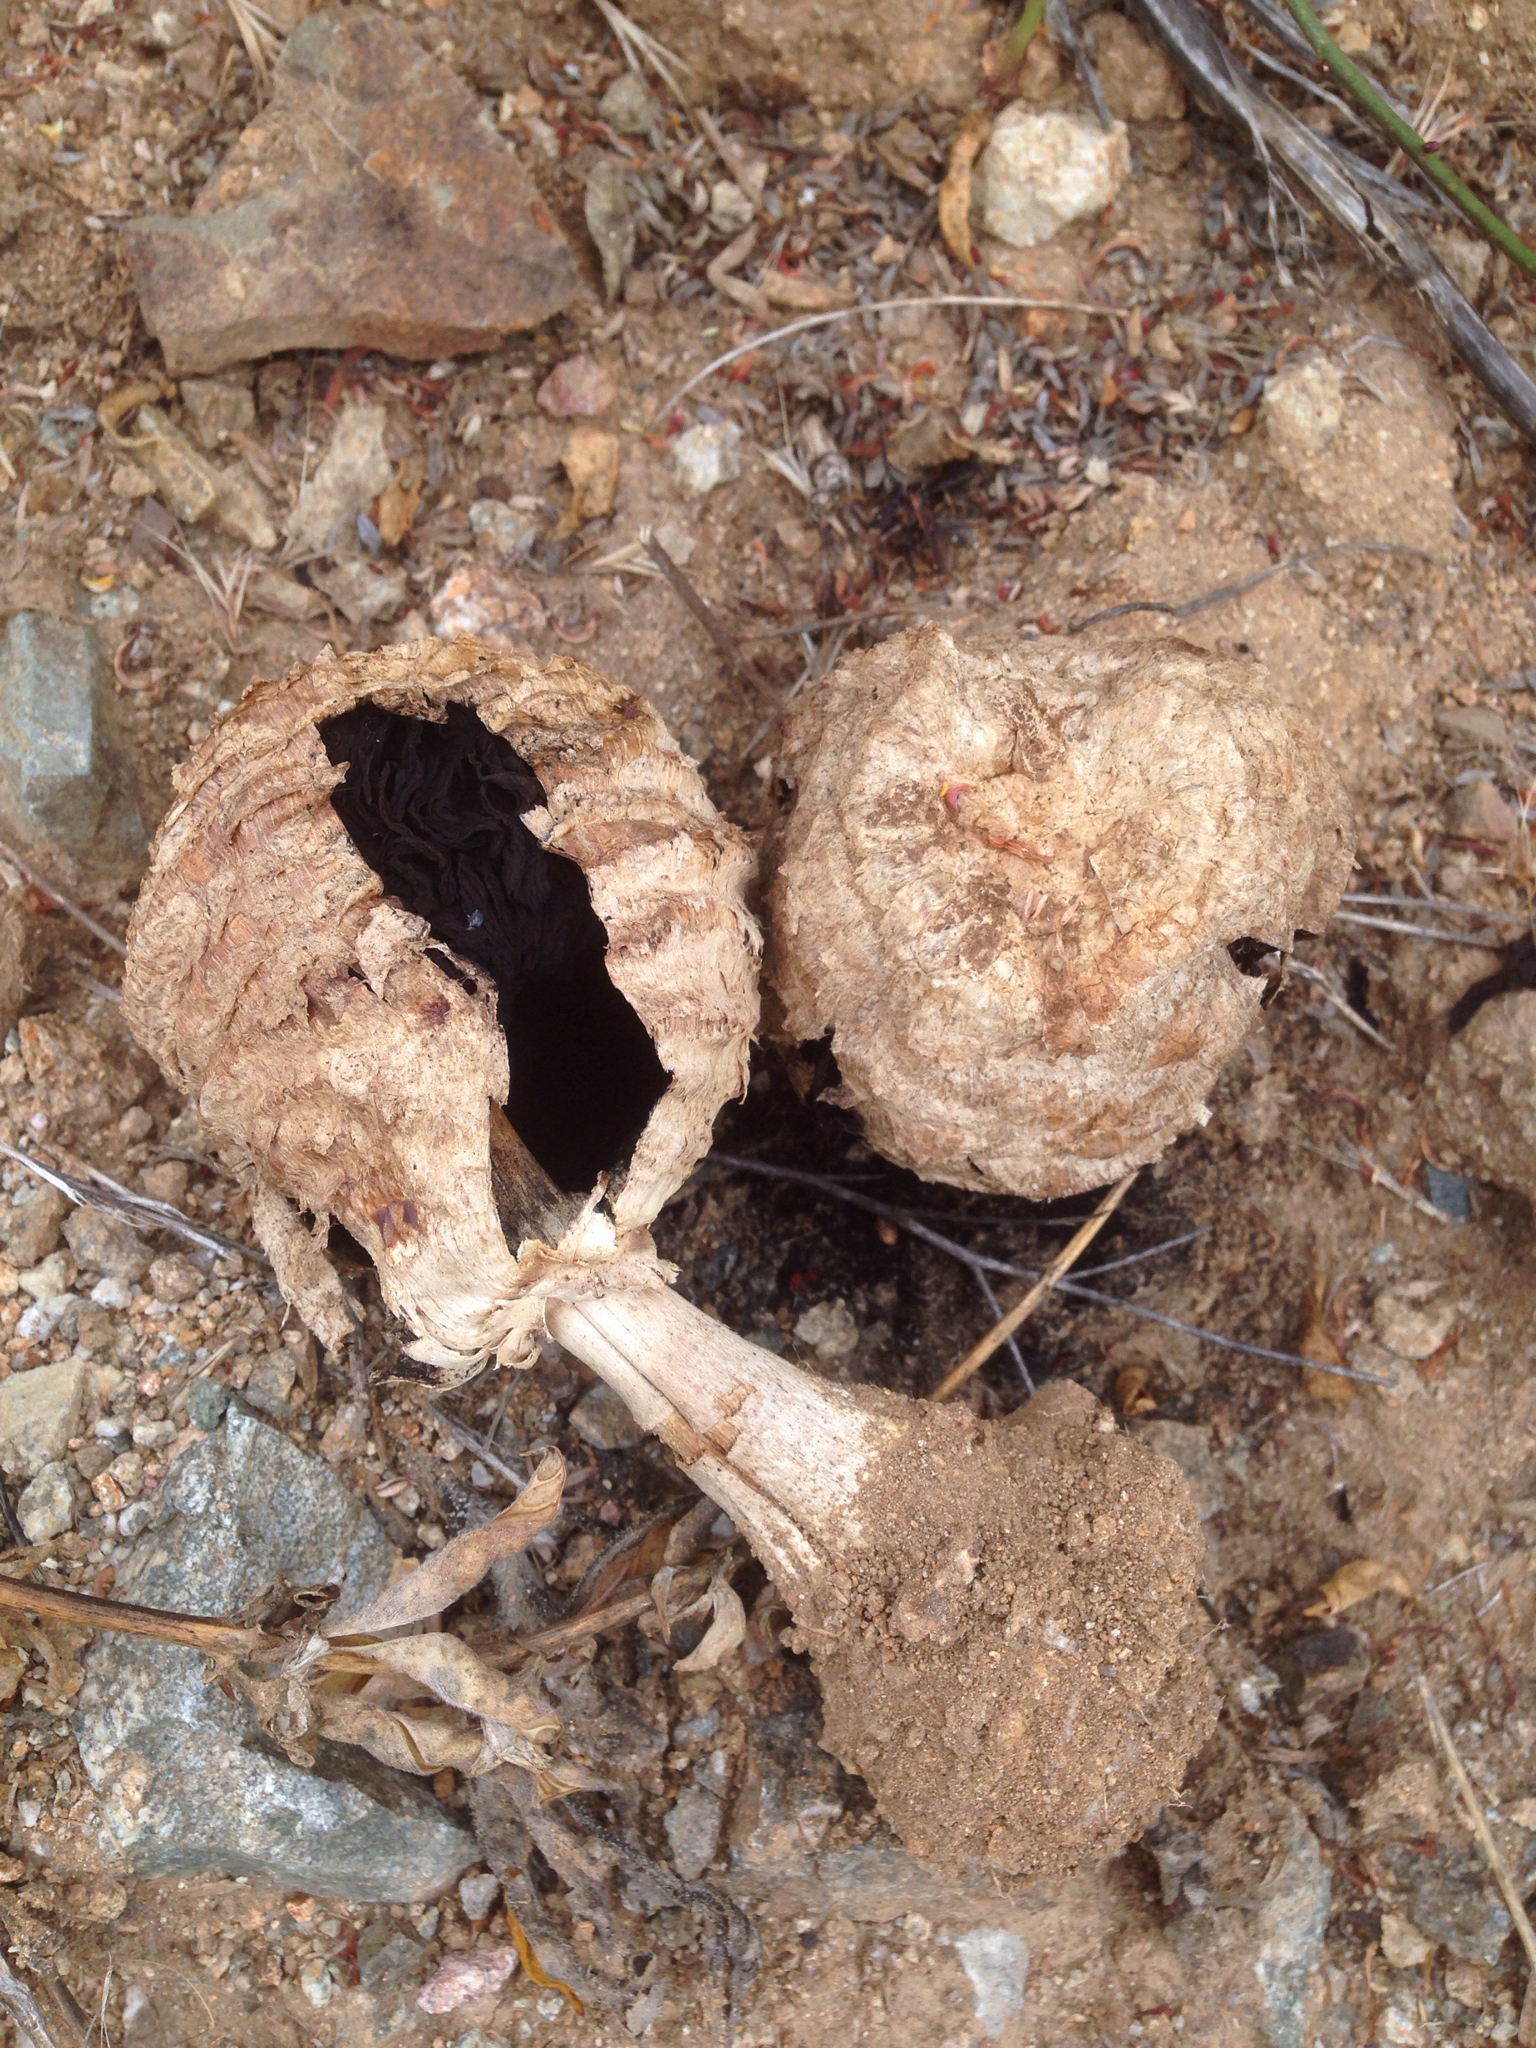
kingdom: Fungi
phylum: Basidiomycota
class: Agaricomycetes
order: Agaricales
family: Agaricaceae
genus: Agaricus
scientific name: Agaricus deserticola
